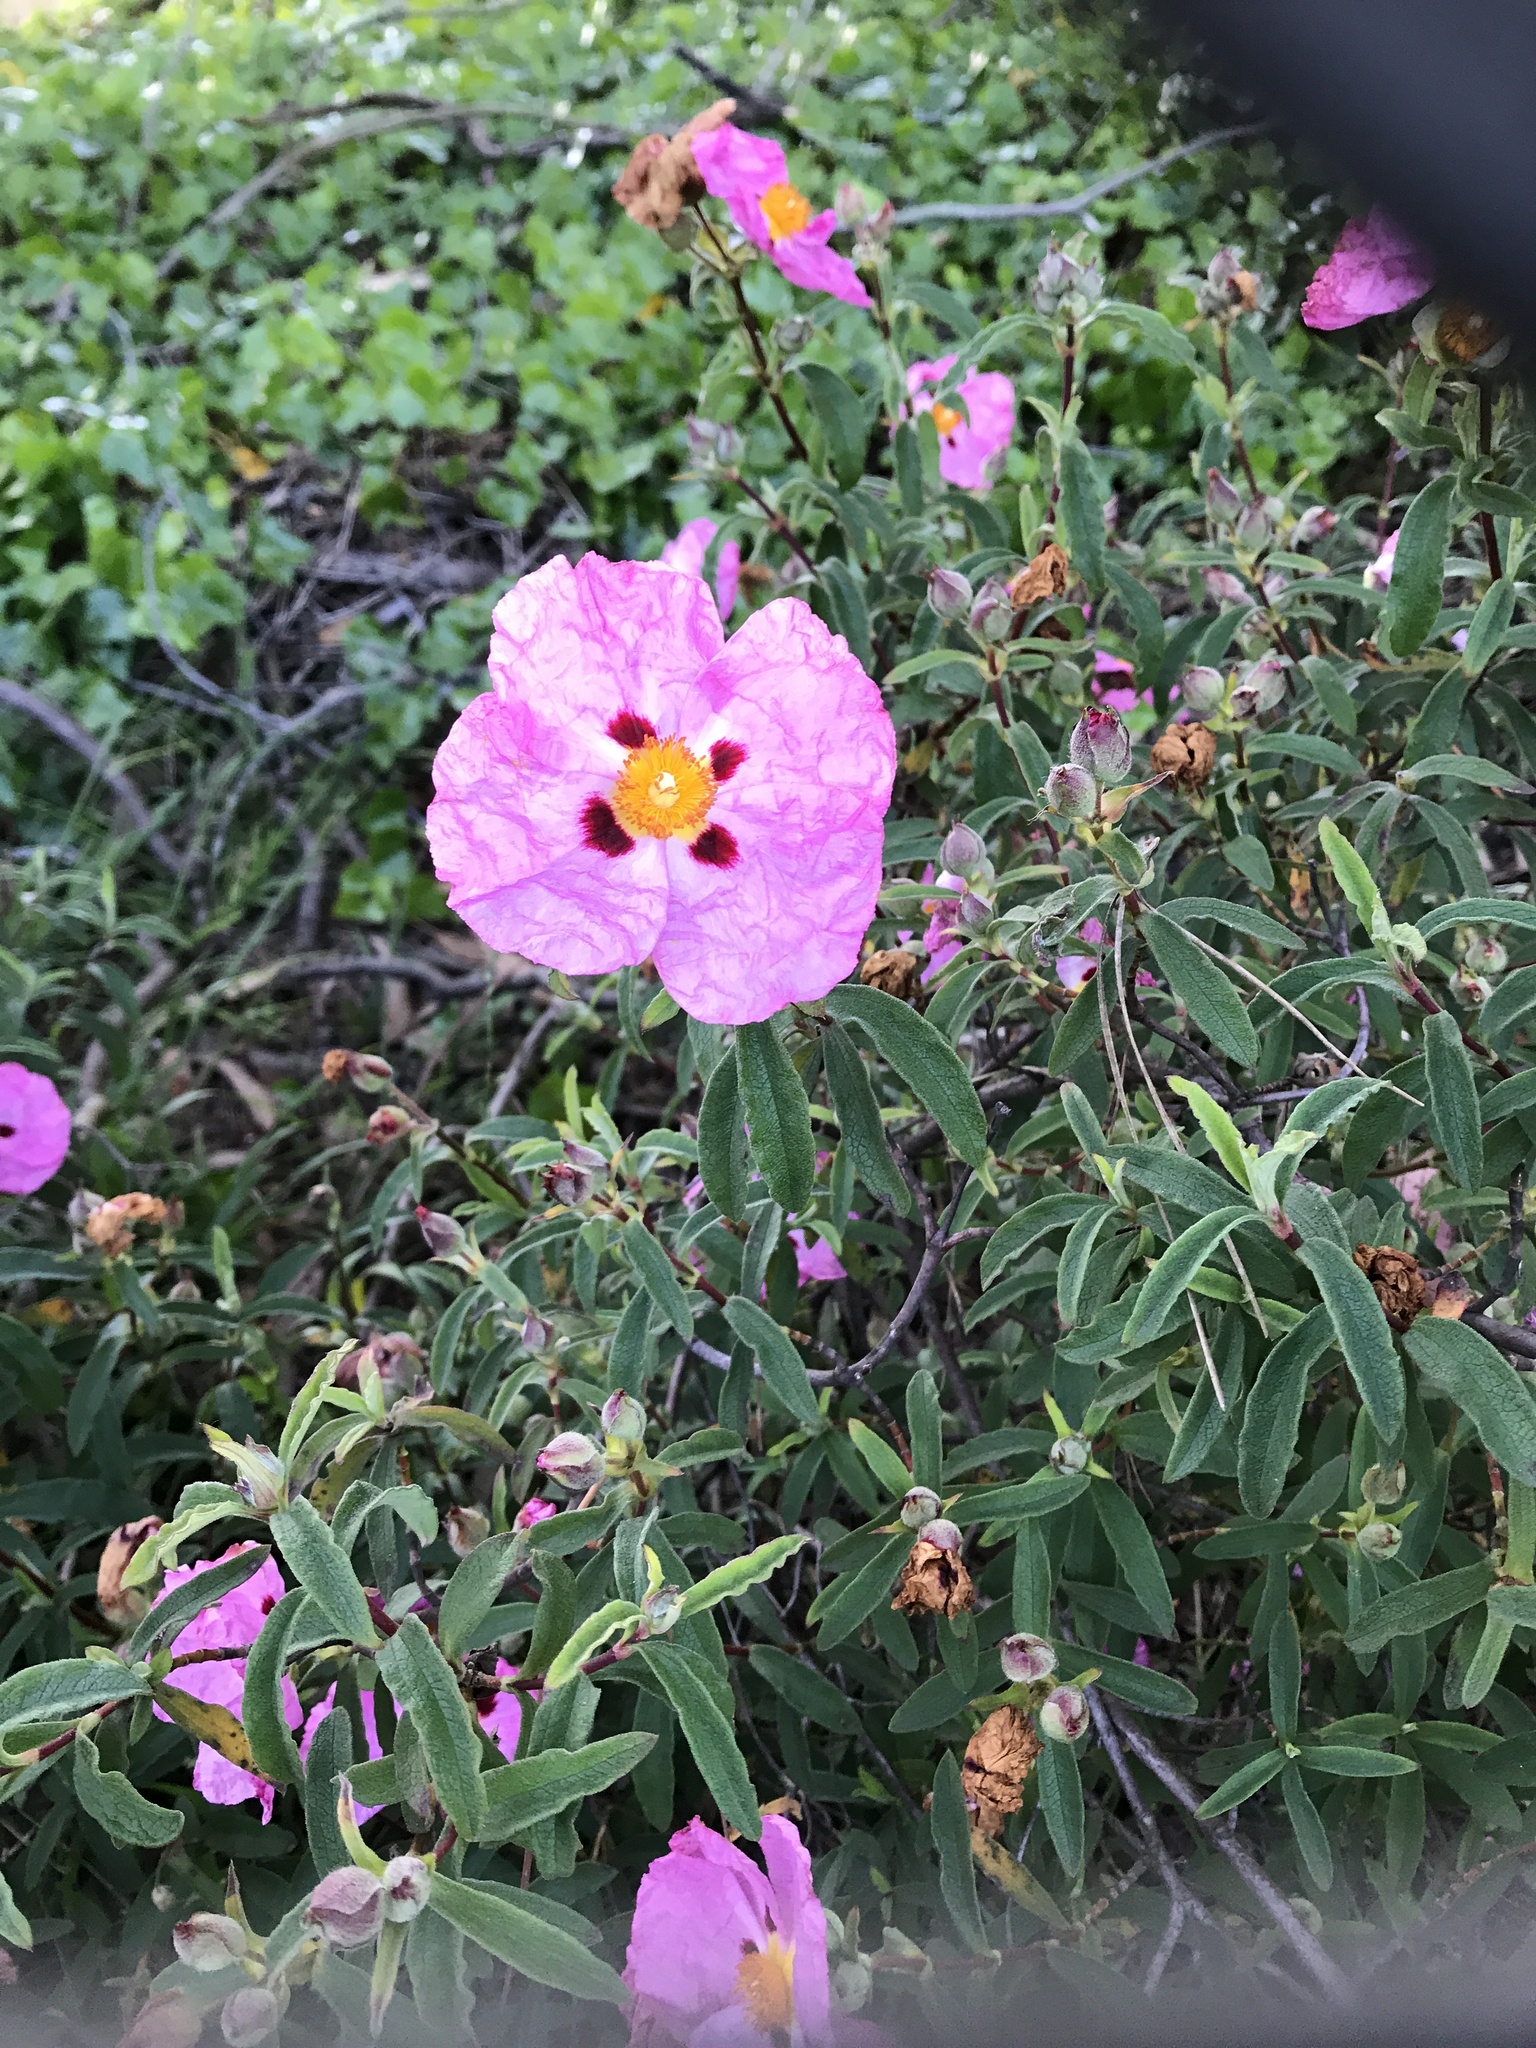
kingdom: Plantae
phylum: Tracheophyta
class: Magnoliopsida
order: Malvales
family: Cistaceae
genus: Cistus
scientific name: Cistus purpureus
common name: Purple cistus
